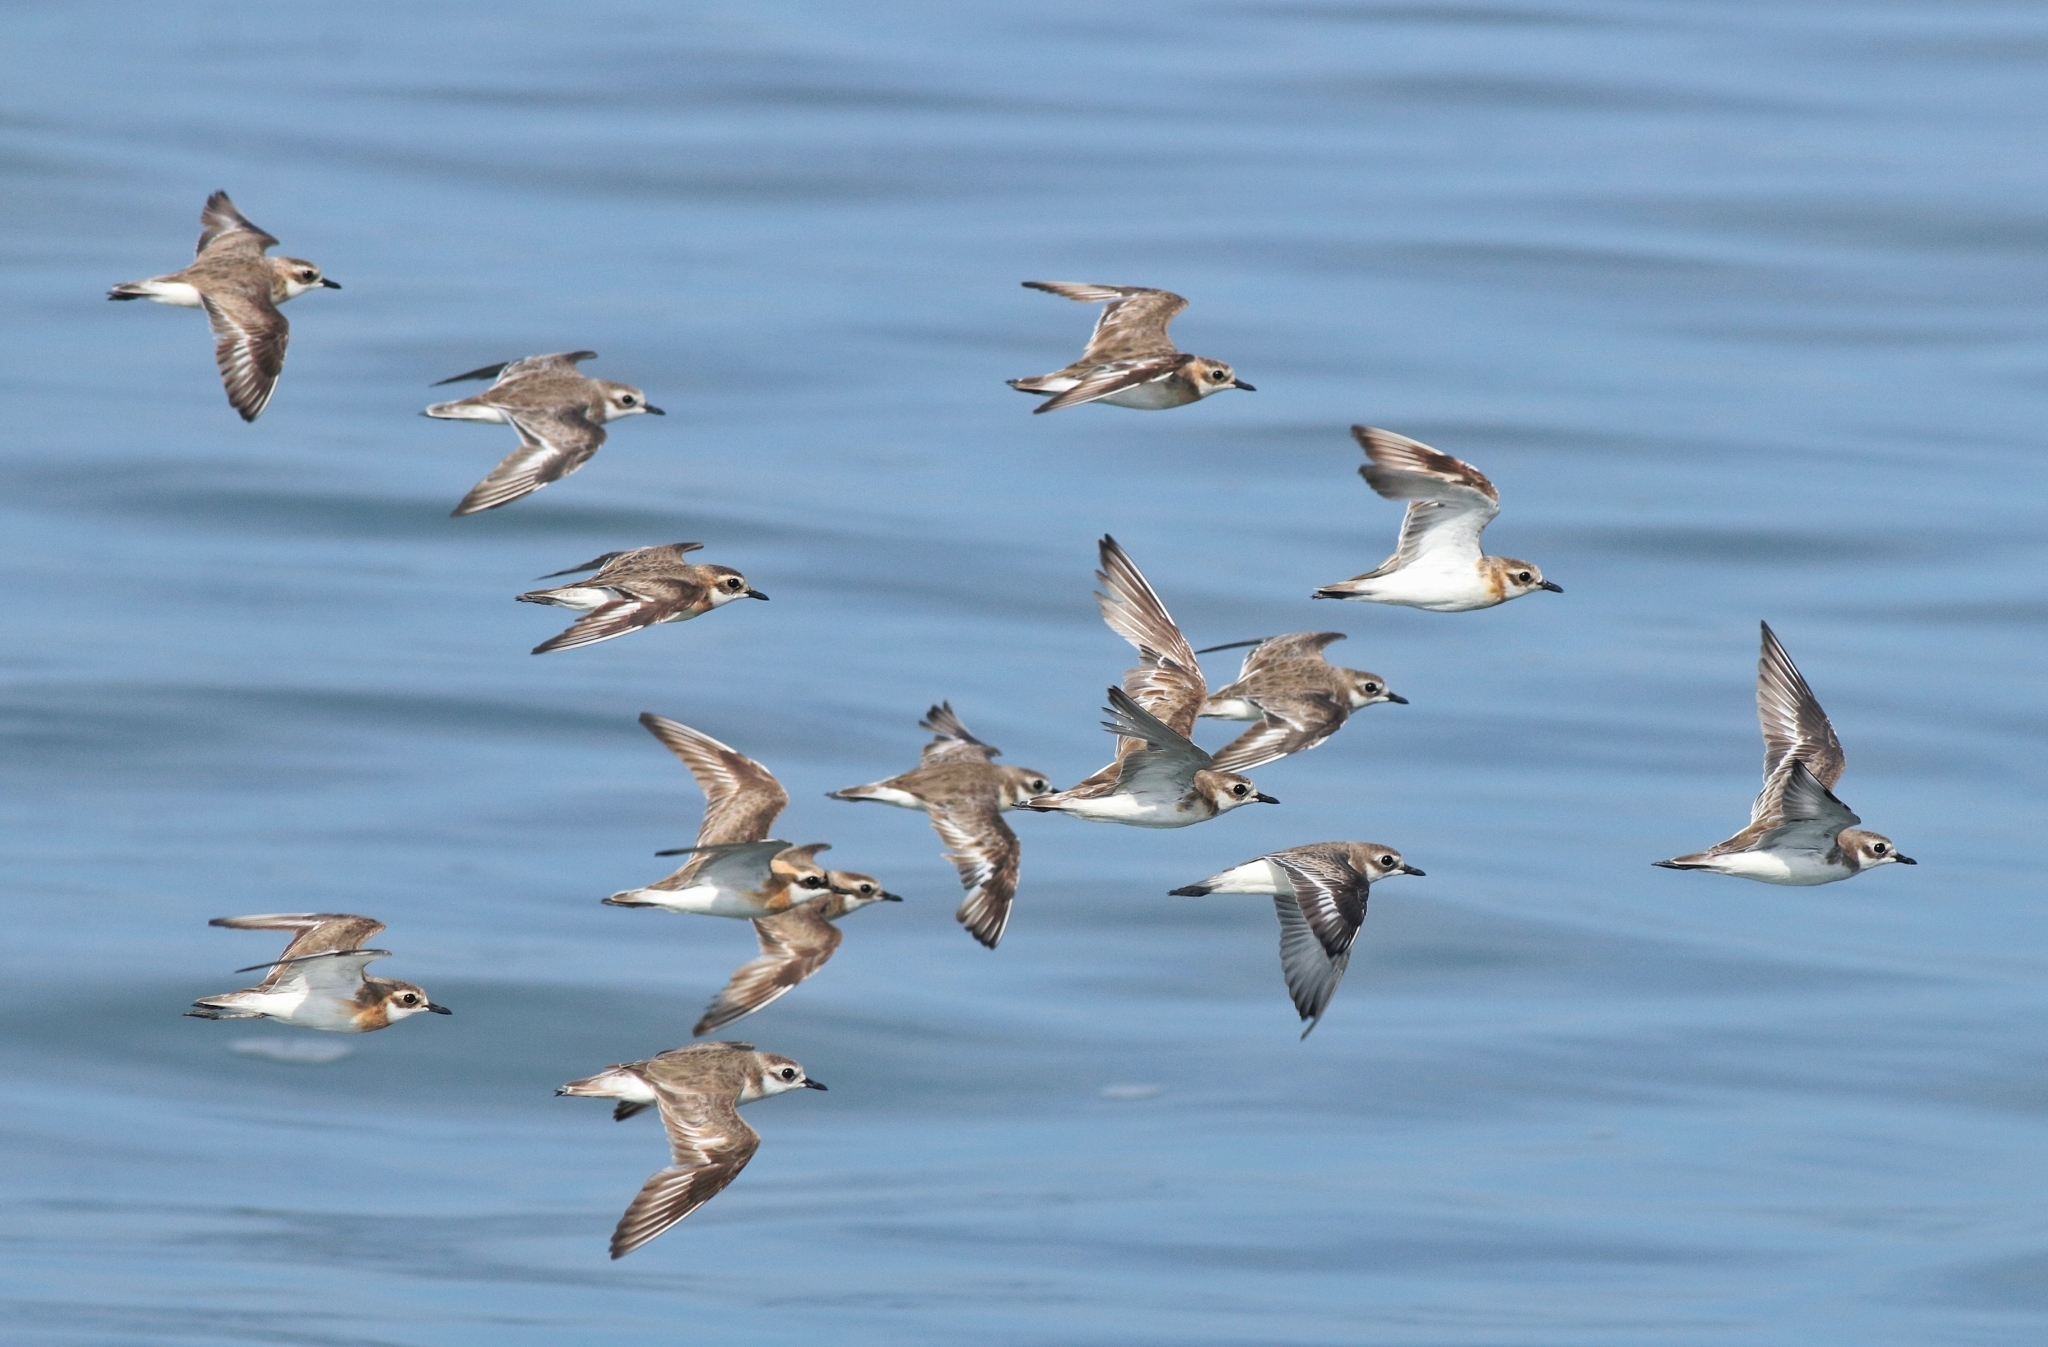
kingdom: Animalia
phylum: Chordata
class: Aves
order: Charadriiformes
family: Charadriidae
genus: Anarhynchus
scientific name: Anarhynchus
